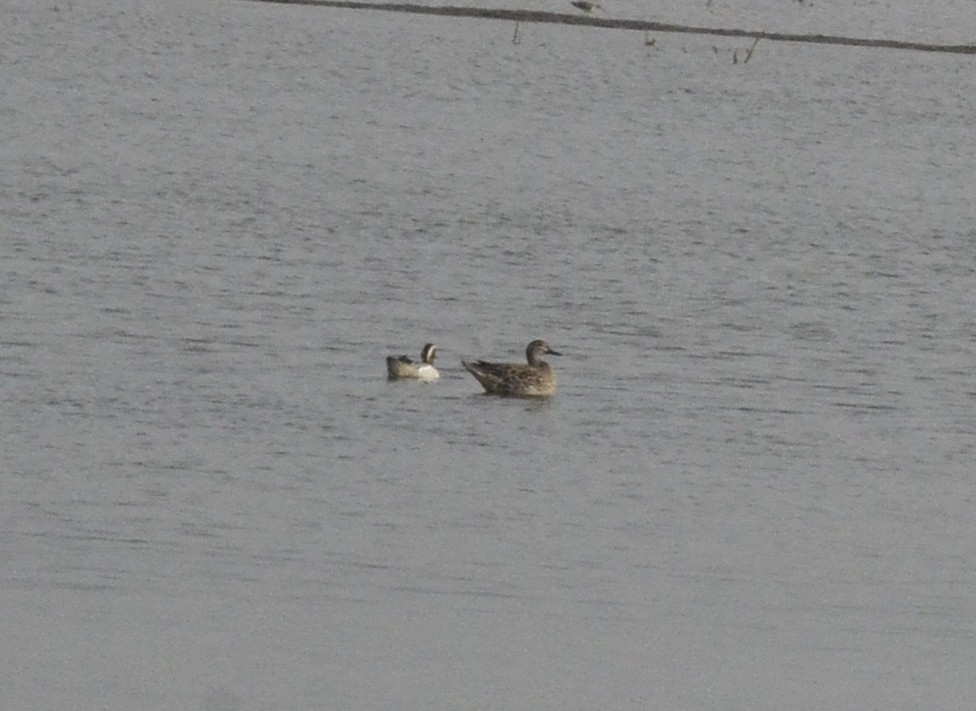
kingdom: Animalia
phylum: Chordata
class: Aves
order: Anseriformes
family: Anatidae
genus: Spatula
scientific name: Spatula querquedula
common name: Garganey
